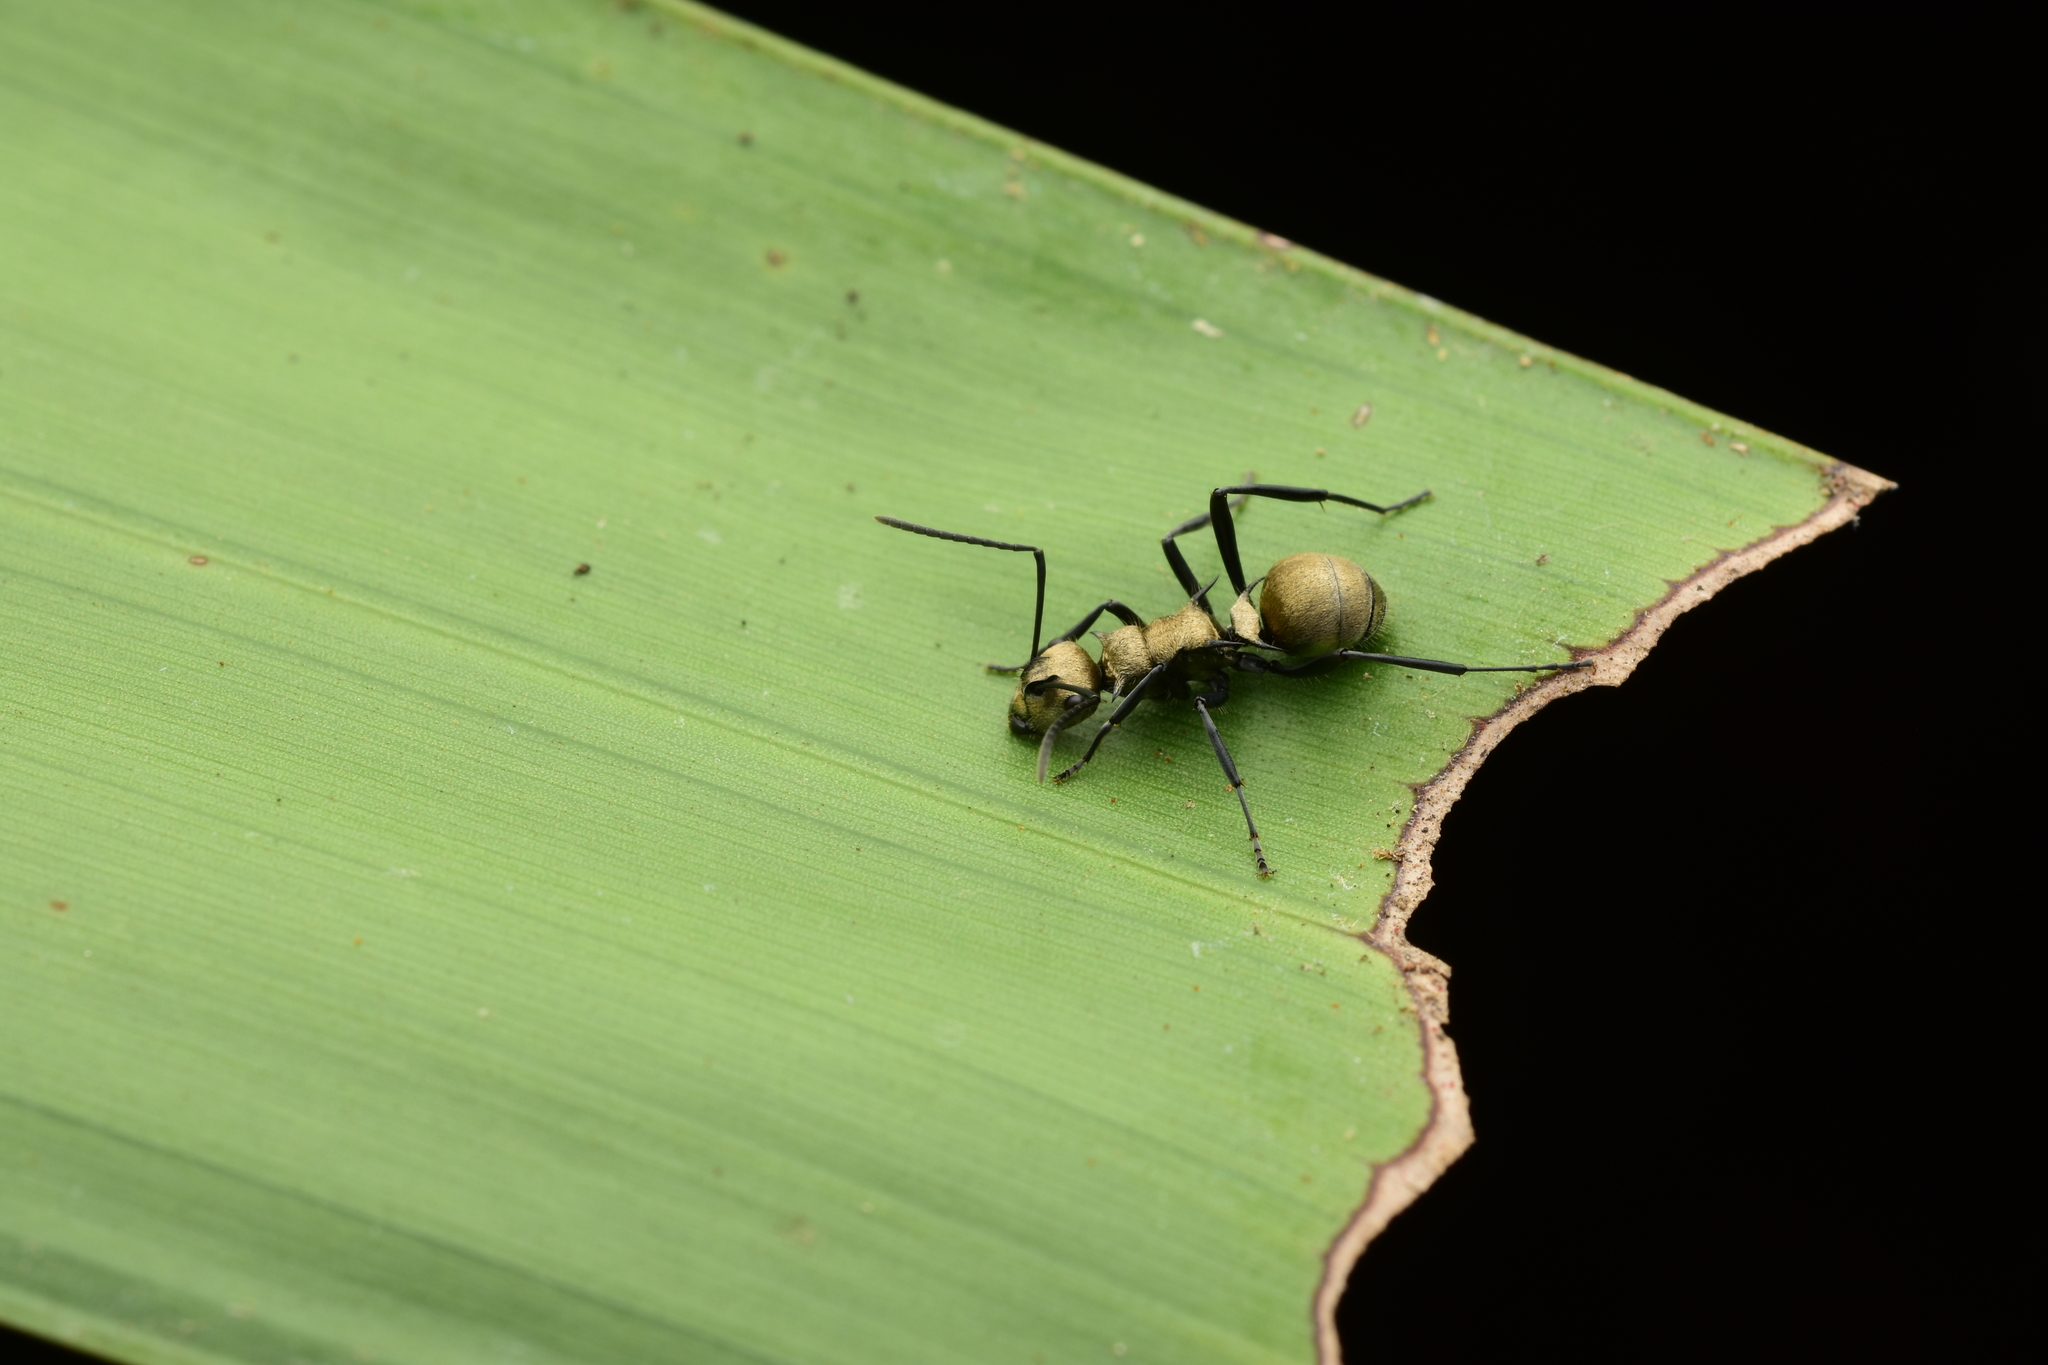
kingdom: Animalia
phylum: Arthropoda
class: Insecta
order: Hymenoptera
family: Formicidae
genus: Polyrhachis
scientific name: Polyrhachis cupreata
